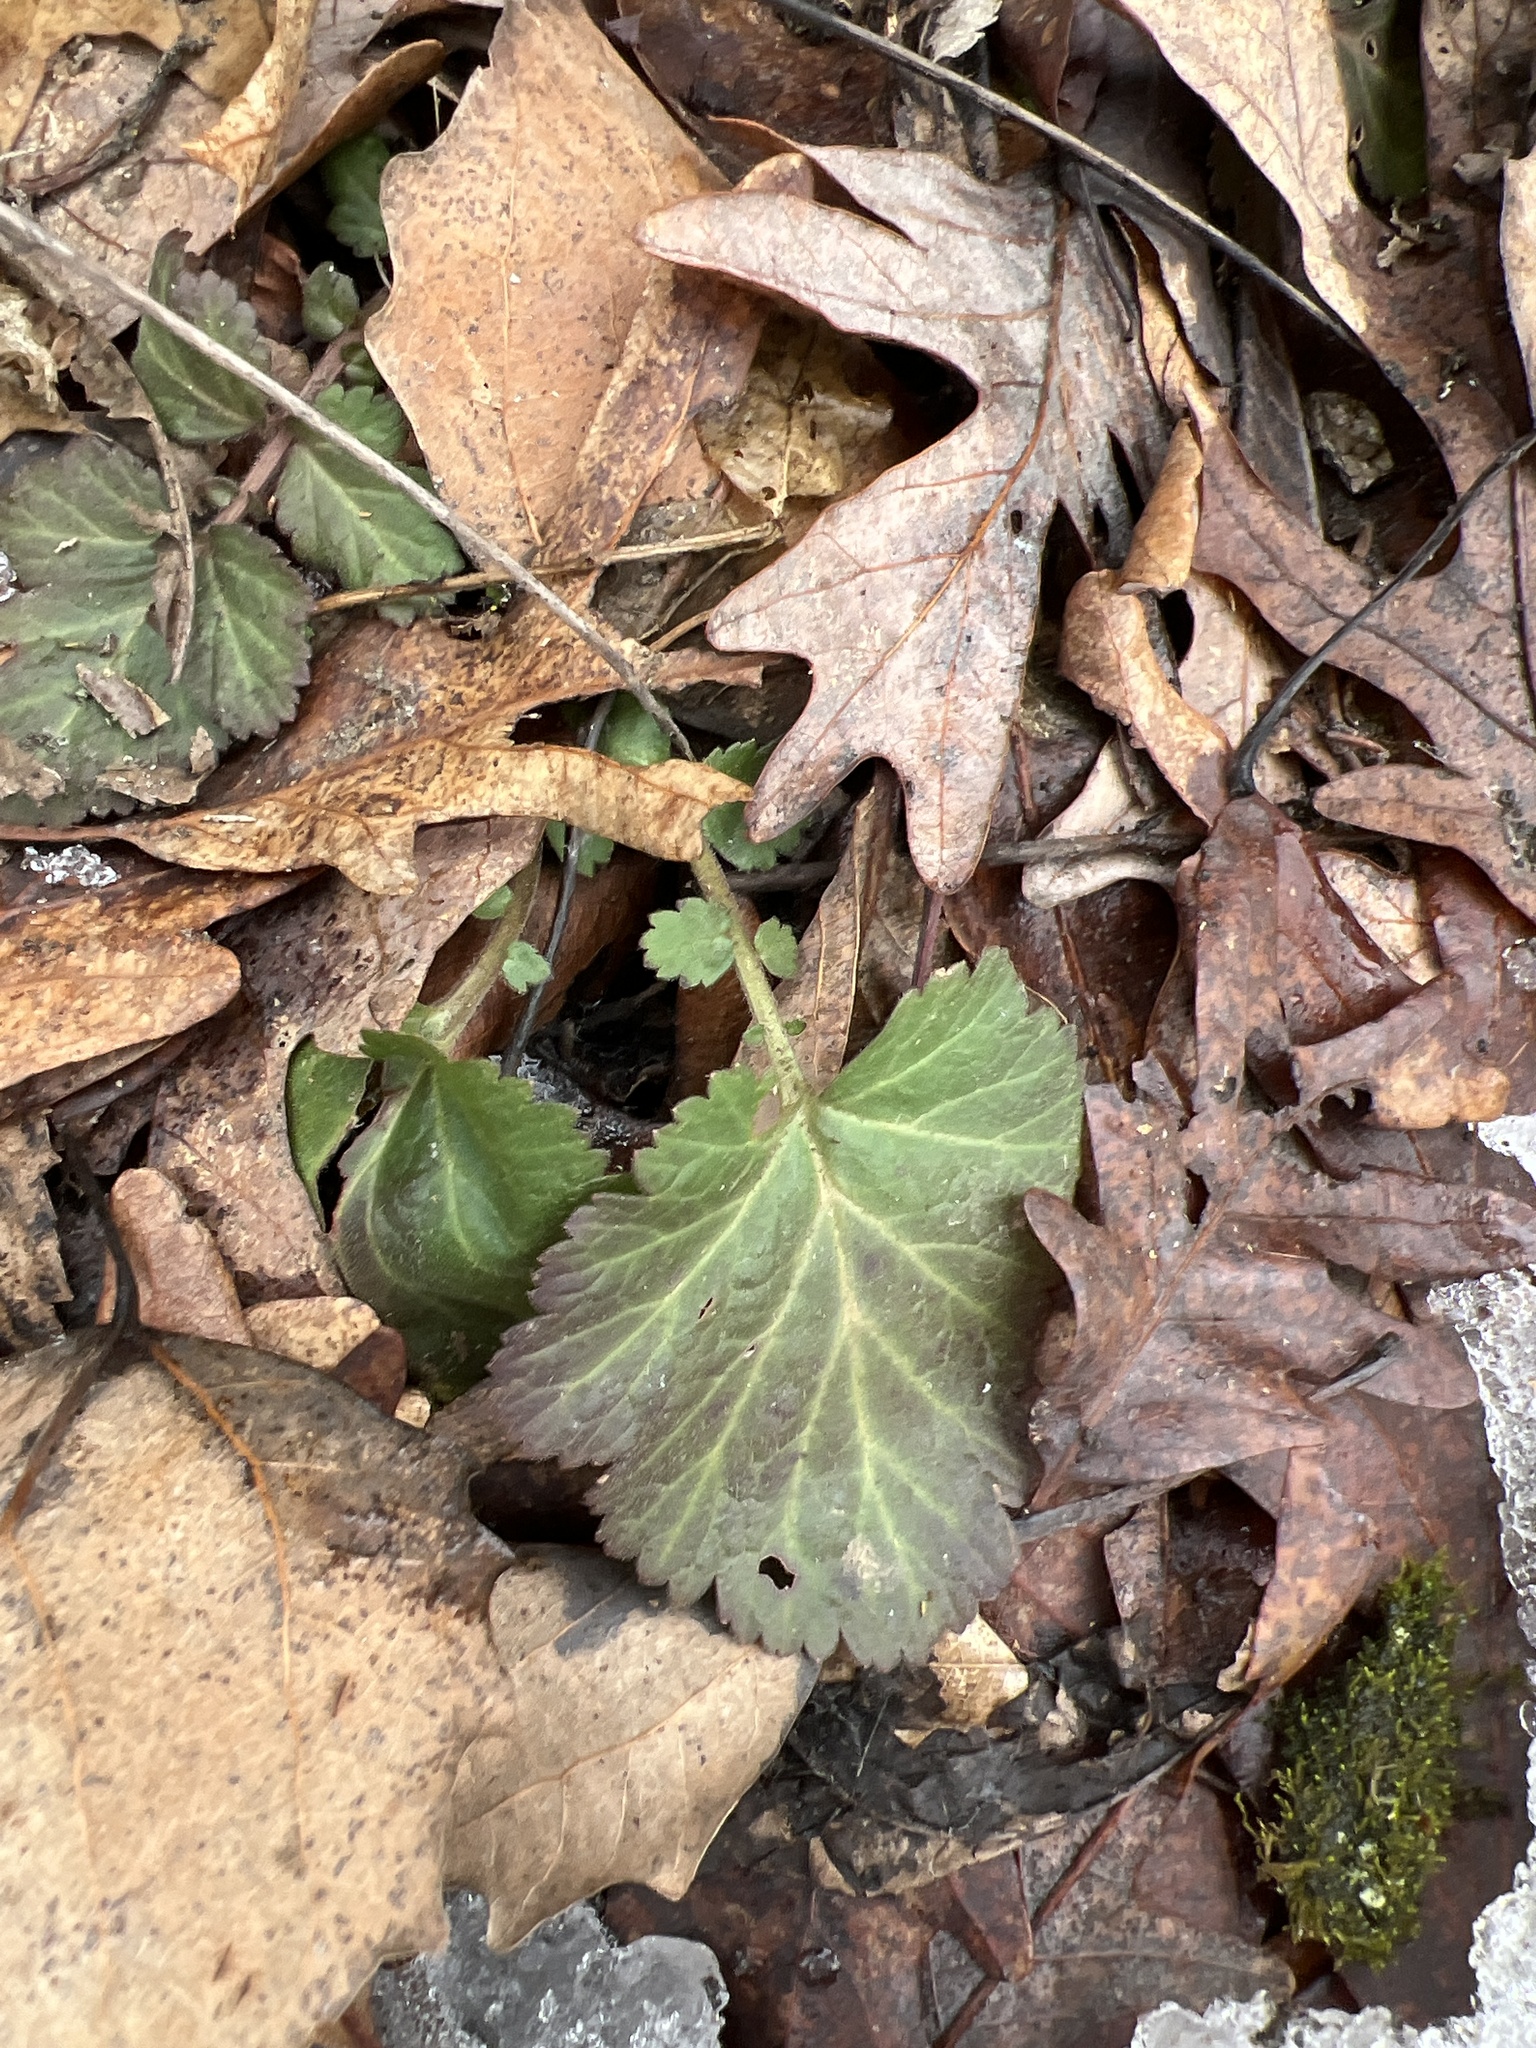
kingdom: Plantae
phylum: Tracheophyta
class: Magnoliopsida
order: Rosales
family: Rosaceae
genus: Geum
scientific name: Geum canadense
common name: White avens
